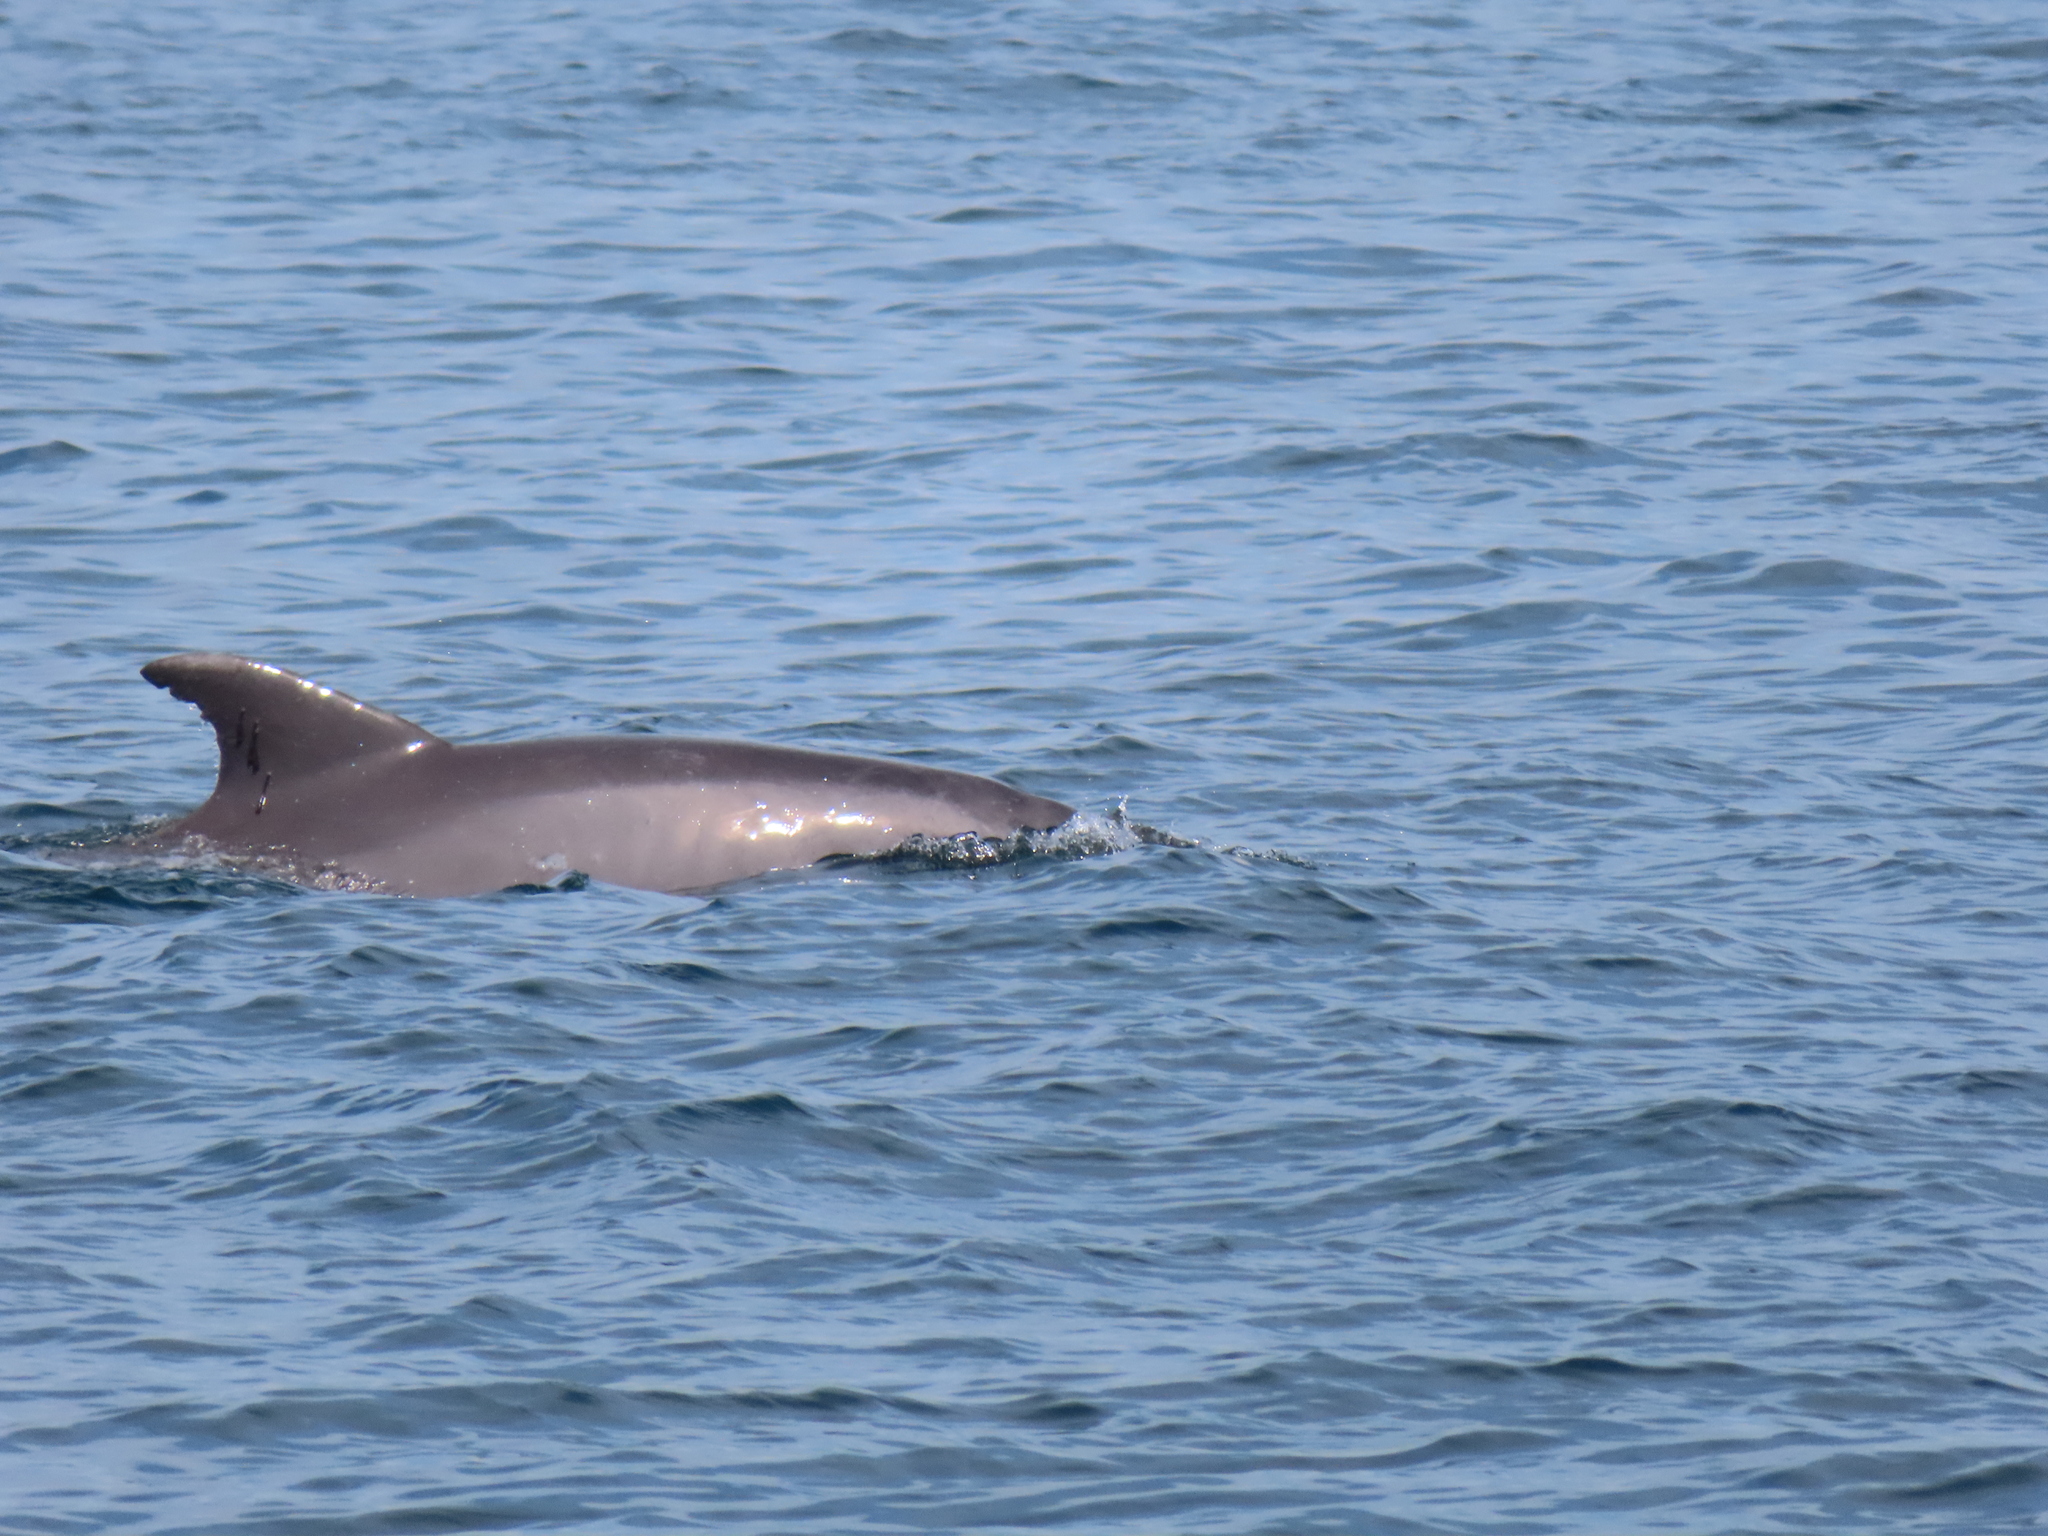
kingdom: Animalia
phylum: Chordata
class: Mammalia
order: Cetacea
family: Delphinidae
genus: Tursiops
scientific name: Tursiops truncatus
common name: Bottlenose dolphin
